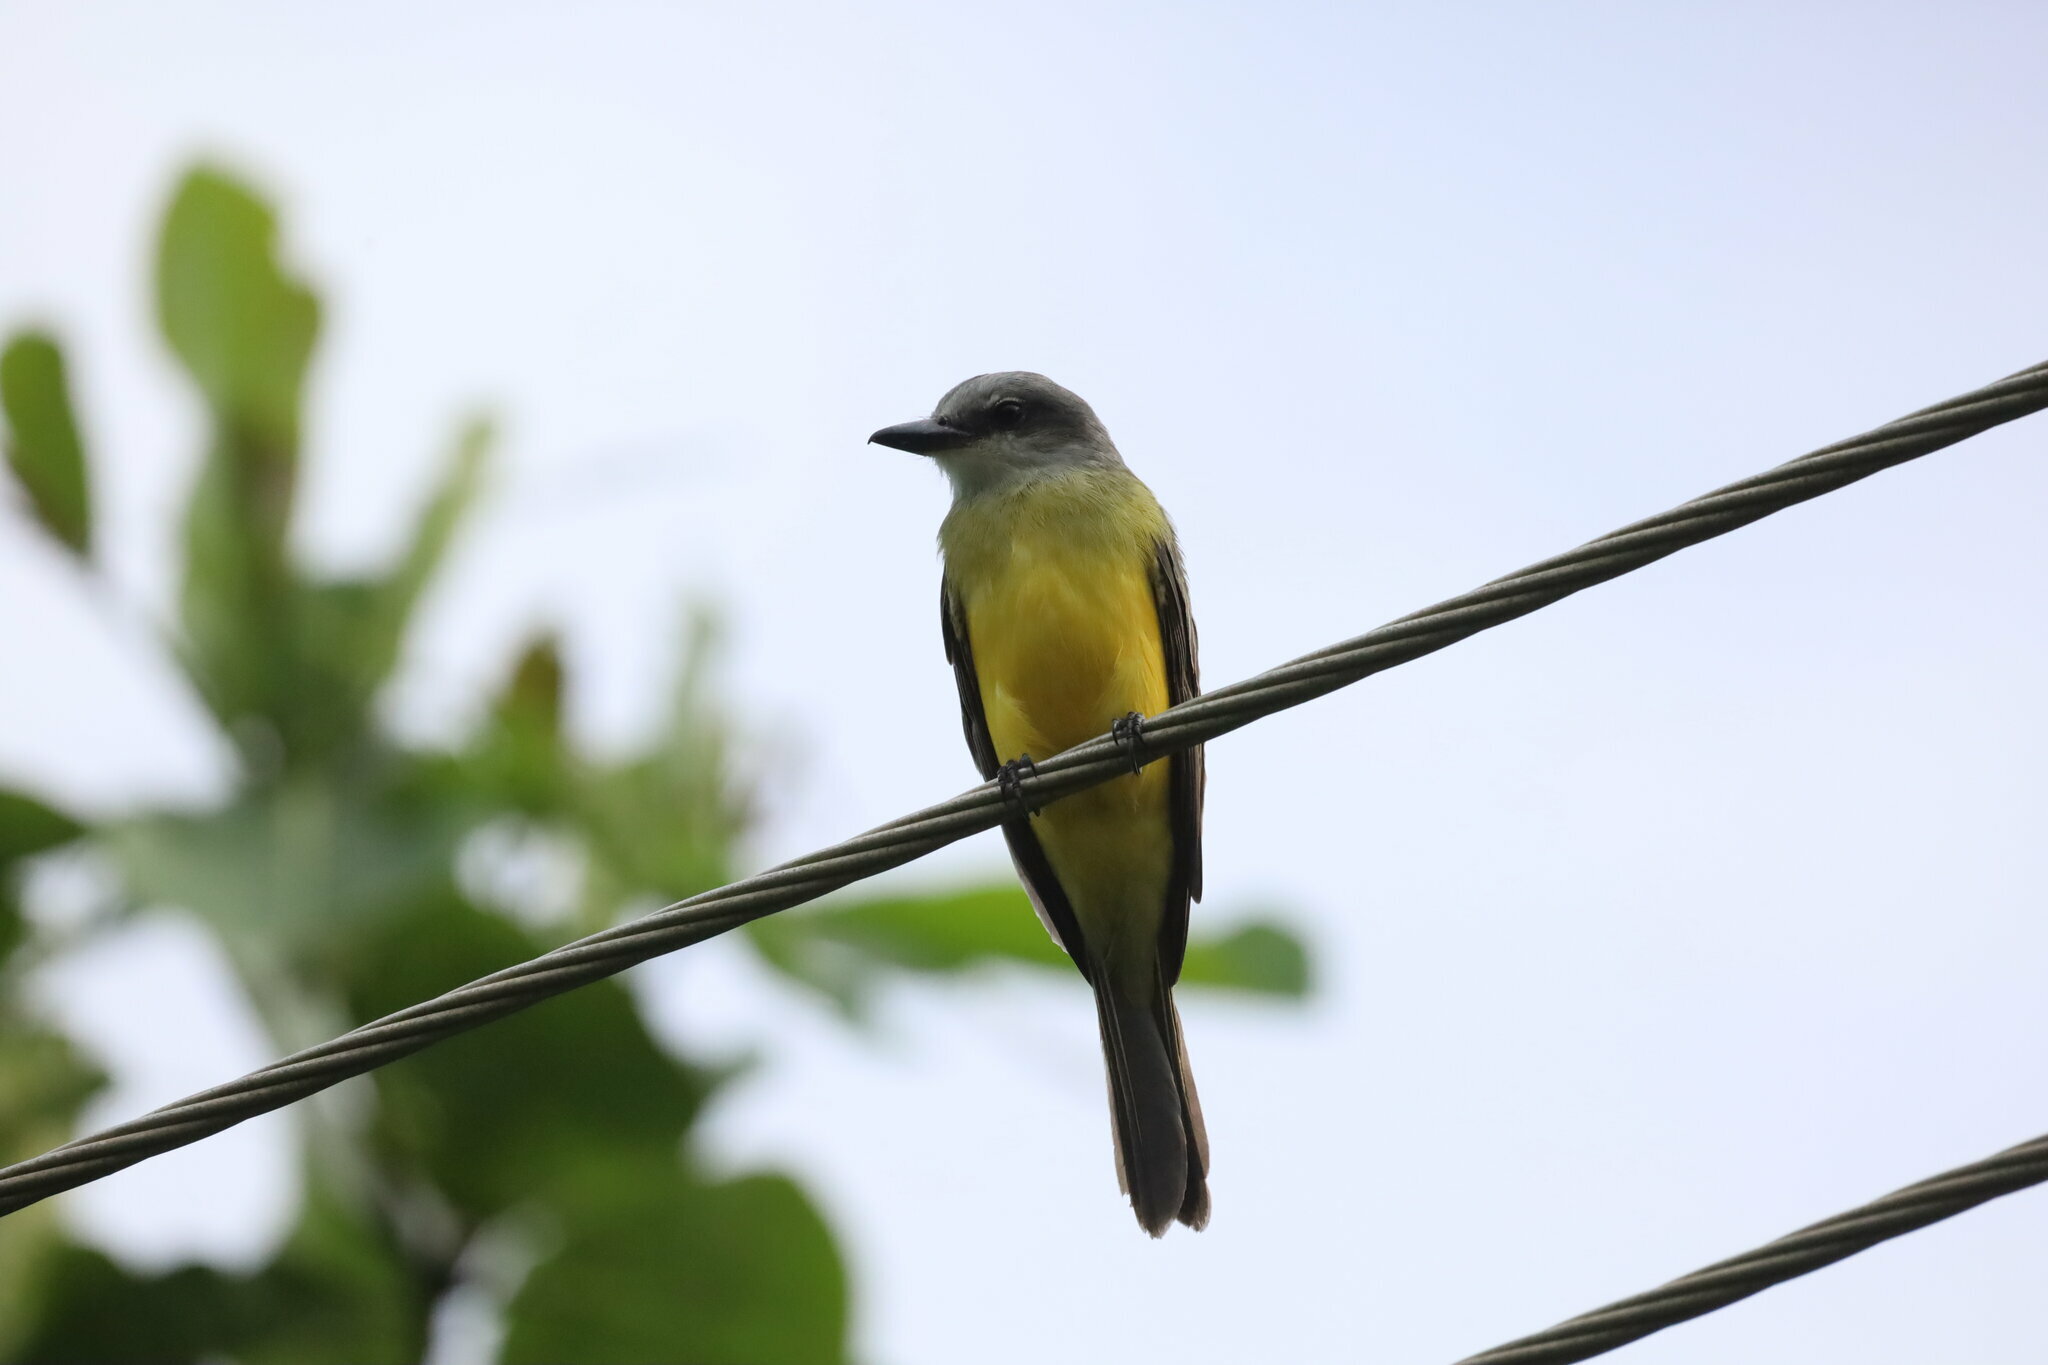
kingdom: Animalia
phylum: Chordata
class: Aves
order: Passeriformes
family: Tyrannidae
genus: Tyrannus
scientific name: Tyrannus melancholicus
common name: Tropical kingbird
